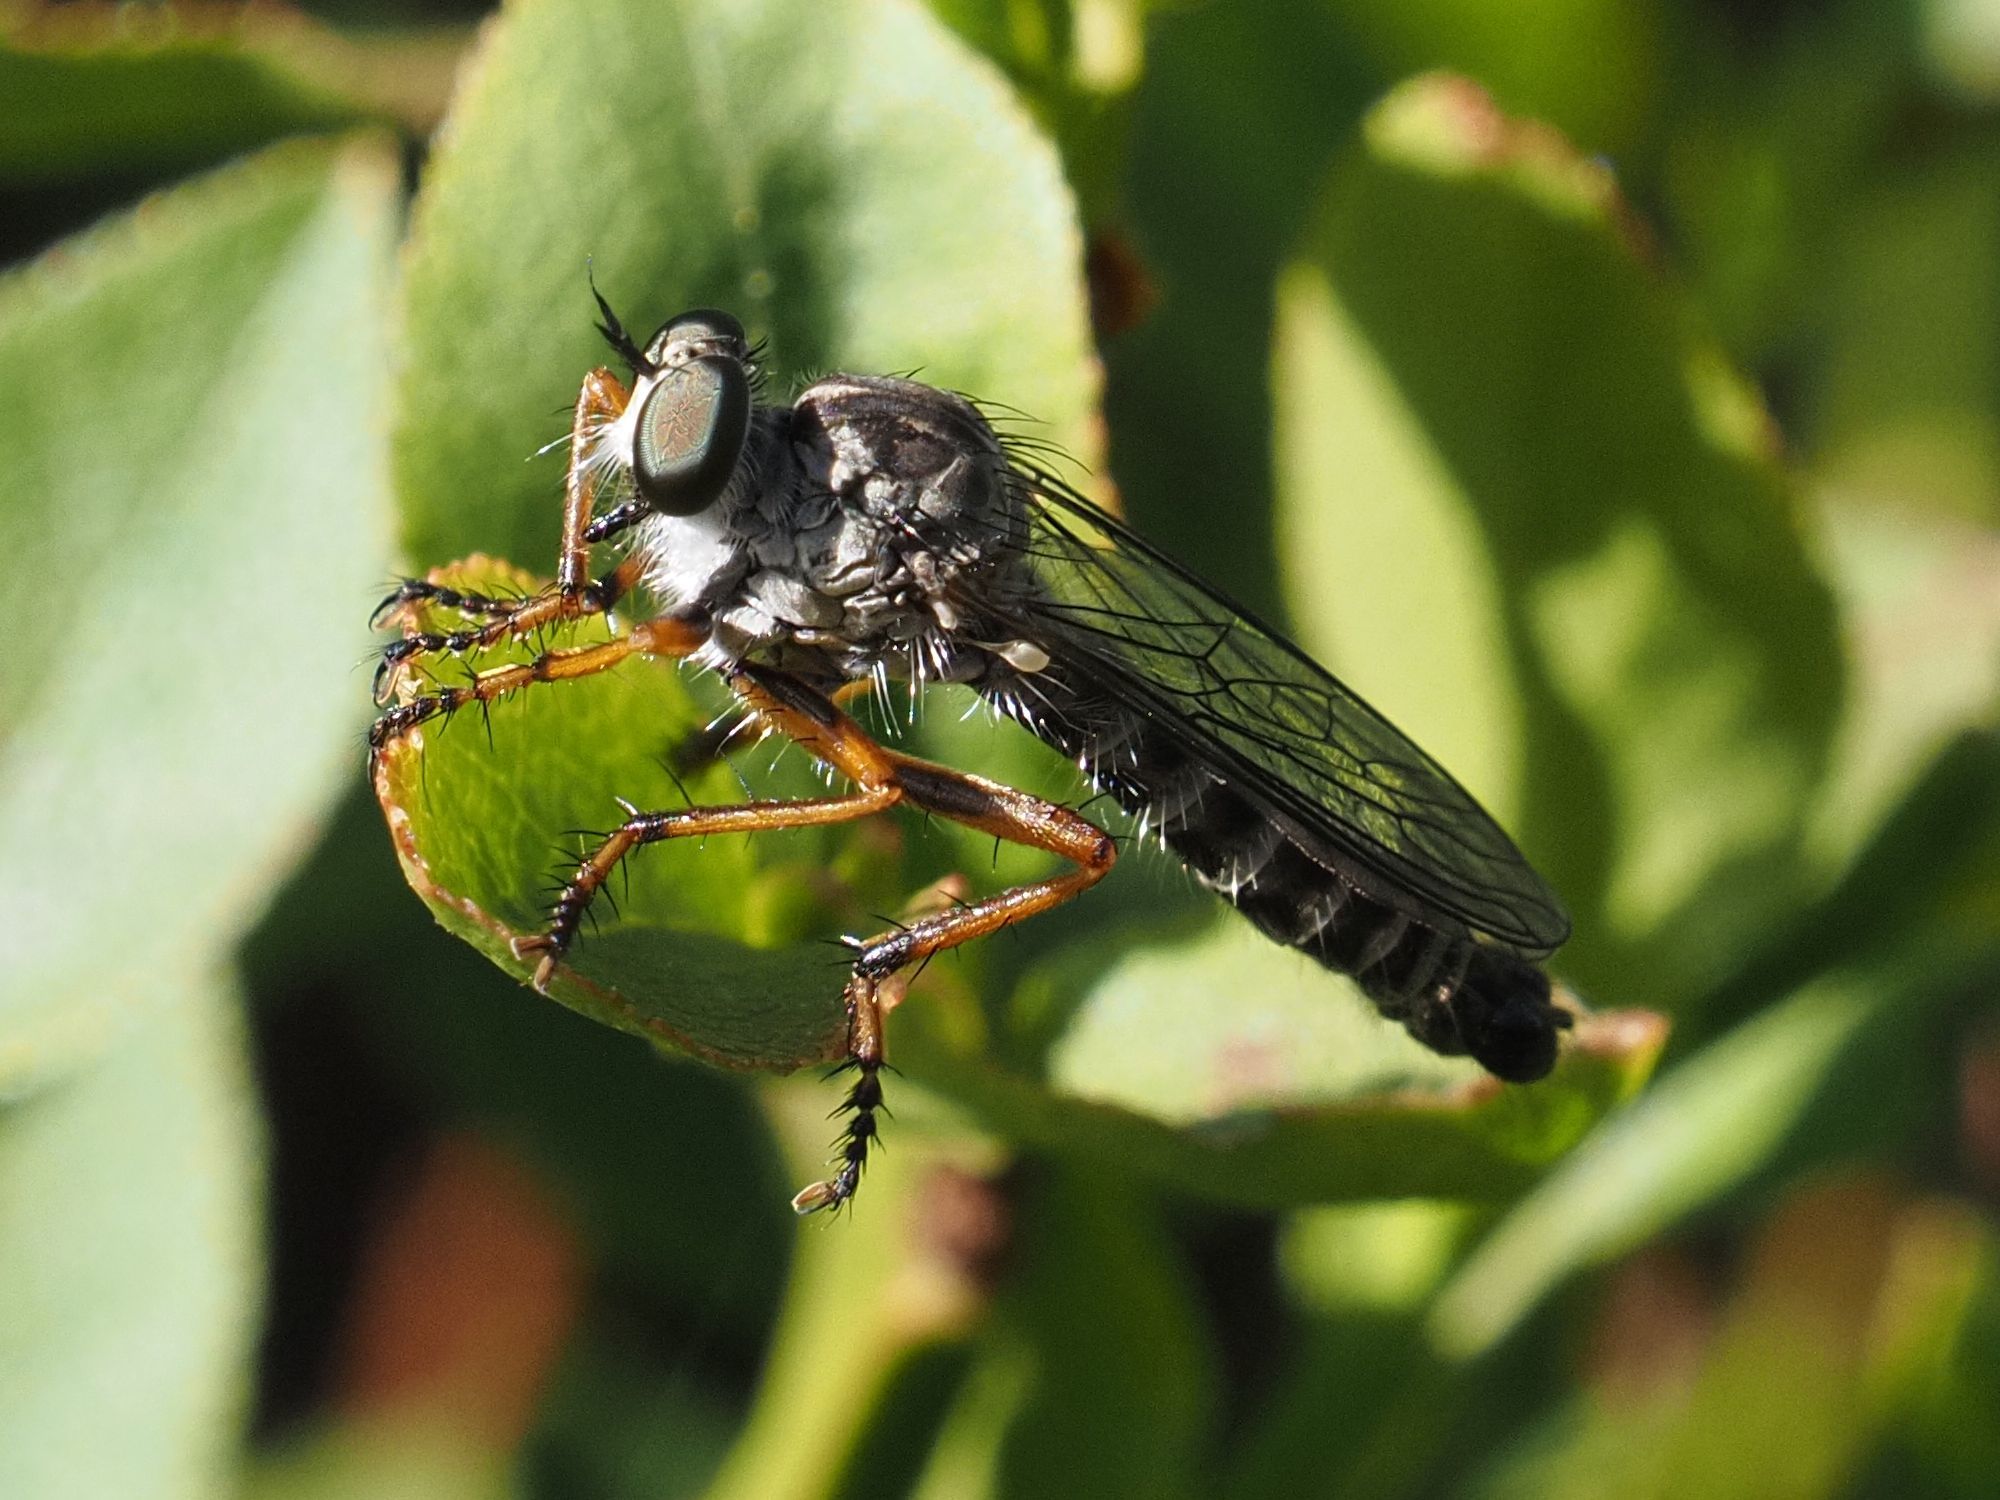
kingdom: Animalia
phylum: Arthropoda
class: Insecta
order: Diptera
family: Asilidae
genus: Neomochtherus
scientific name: Neomochtherus pallipes
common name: Devon red-legged robberfly
